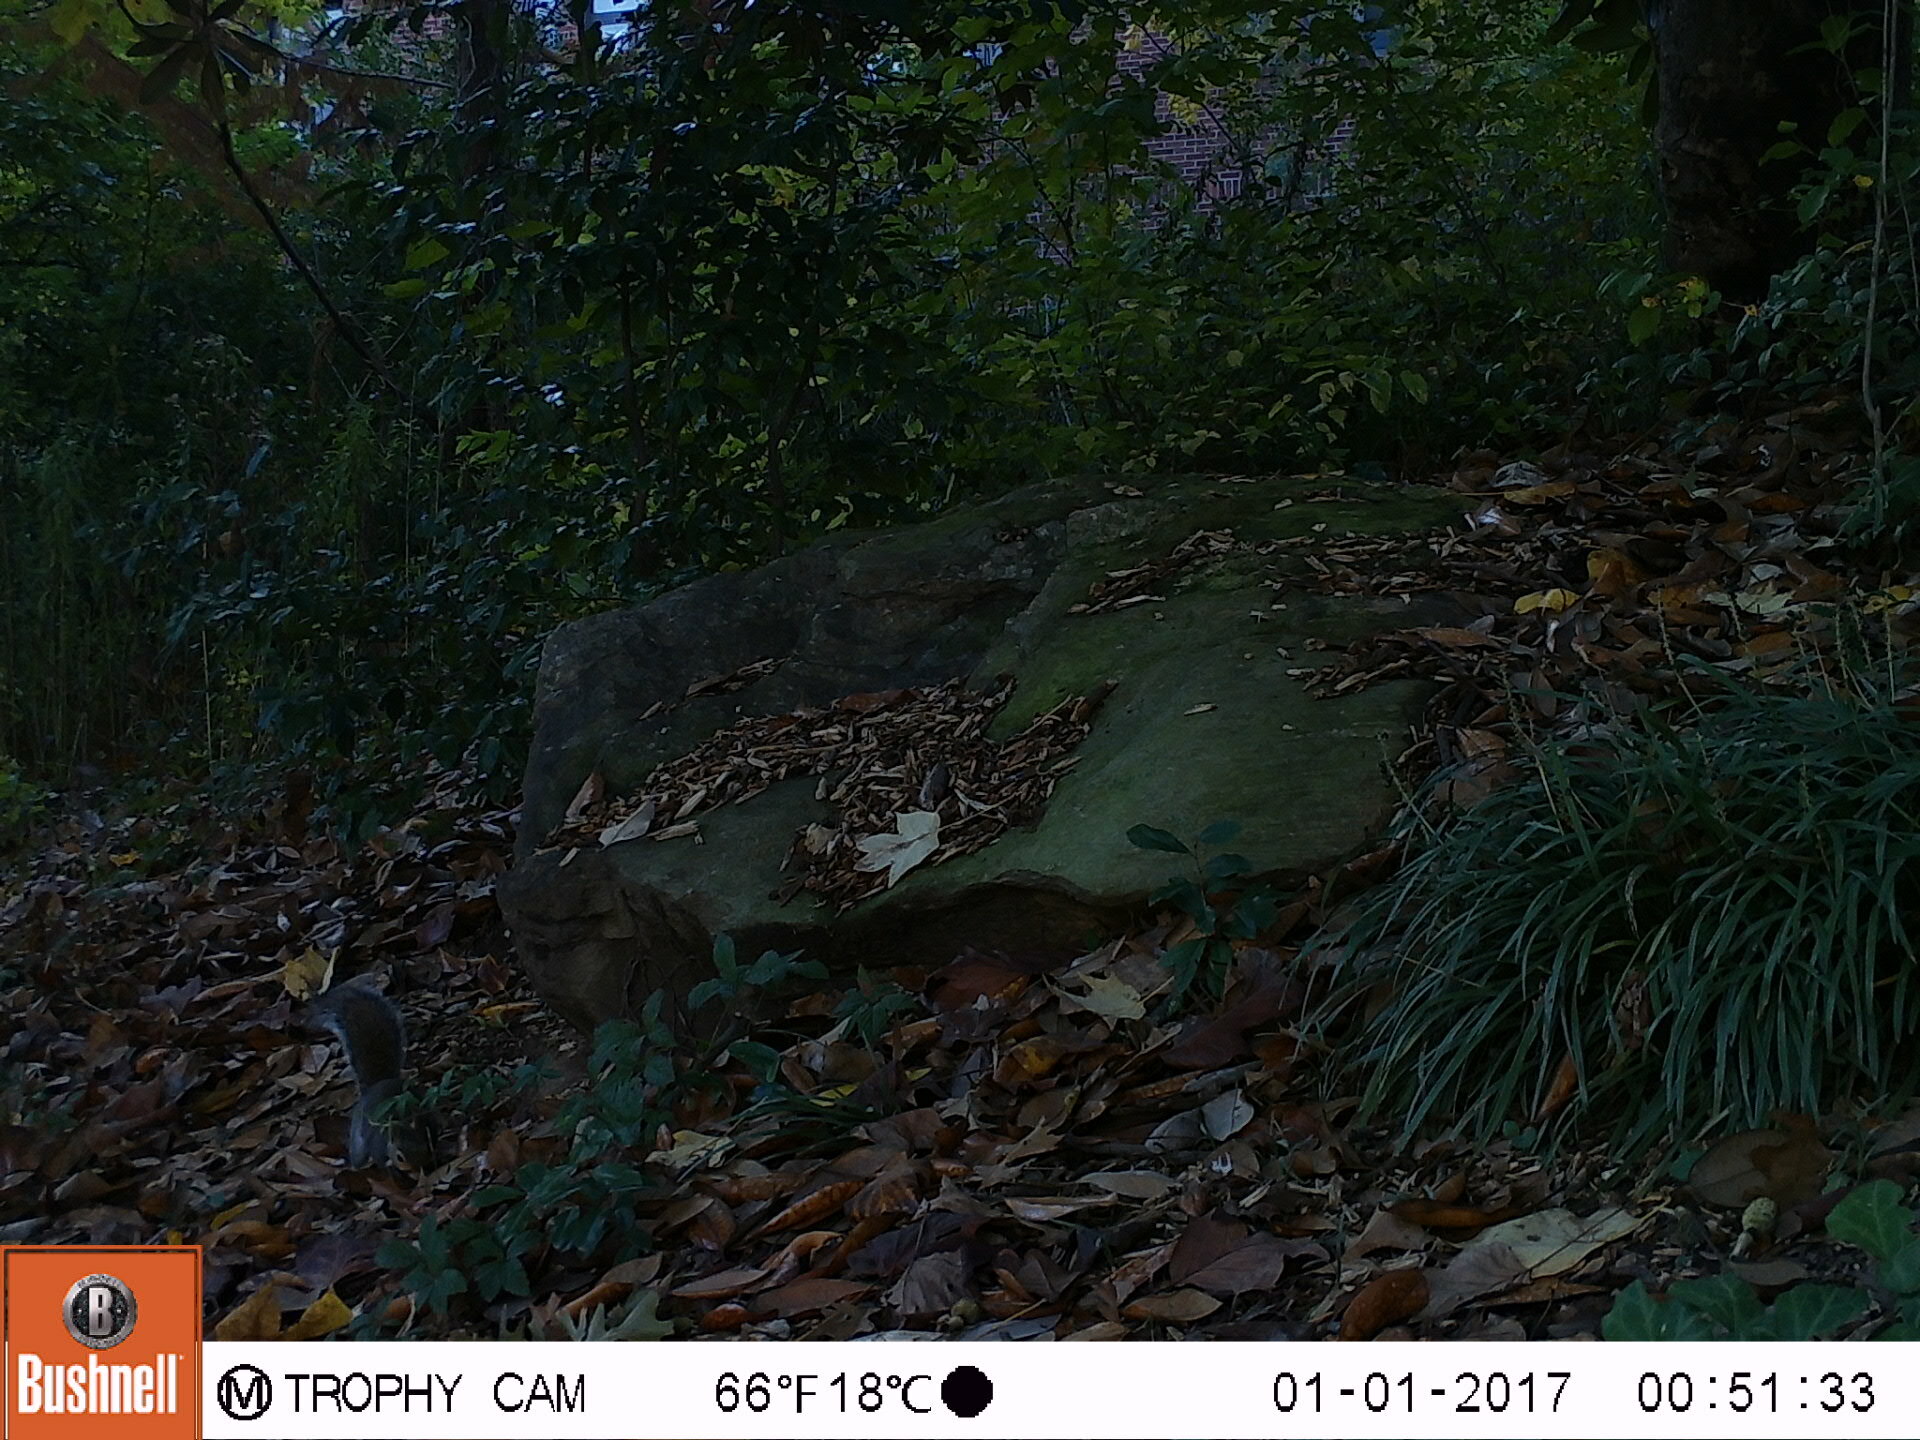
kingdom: Animalia
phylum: Chordata
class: Mammalia
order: Rodentia
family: Sciuridae
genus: Sciurus
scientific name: Sciurus carolinensis
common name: Eastern gray squirrel
